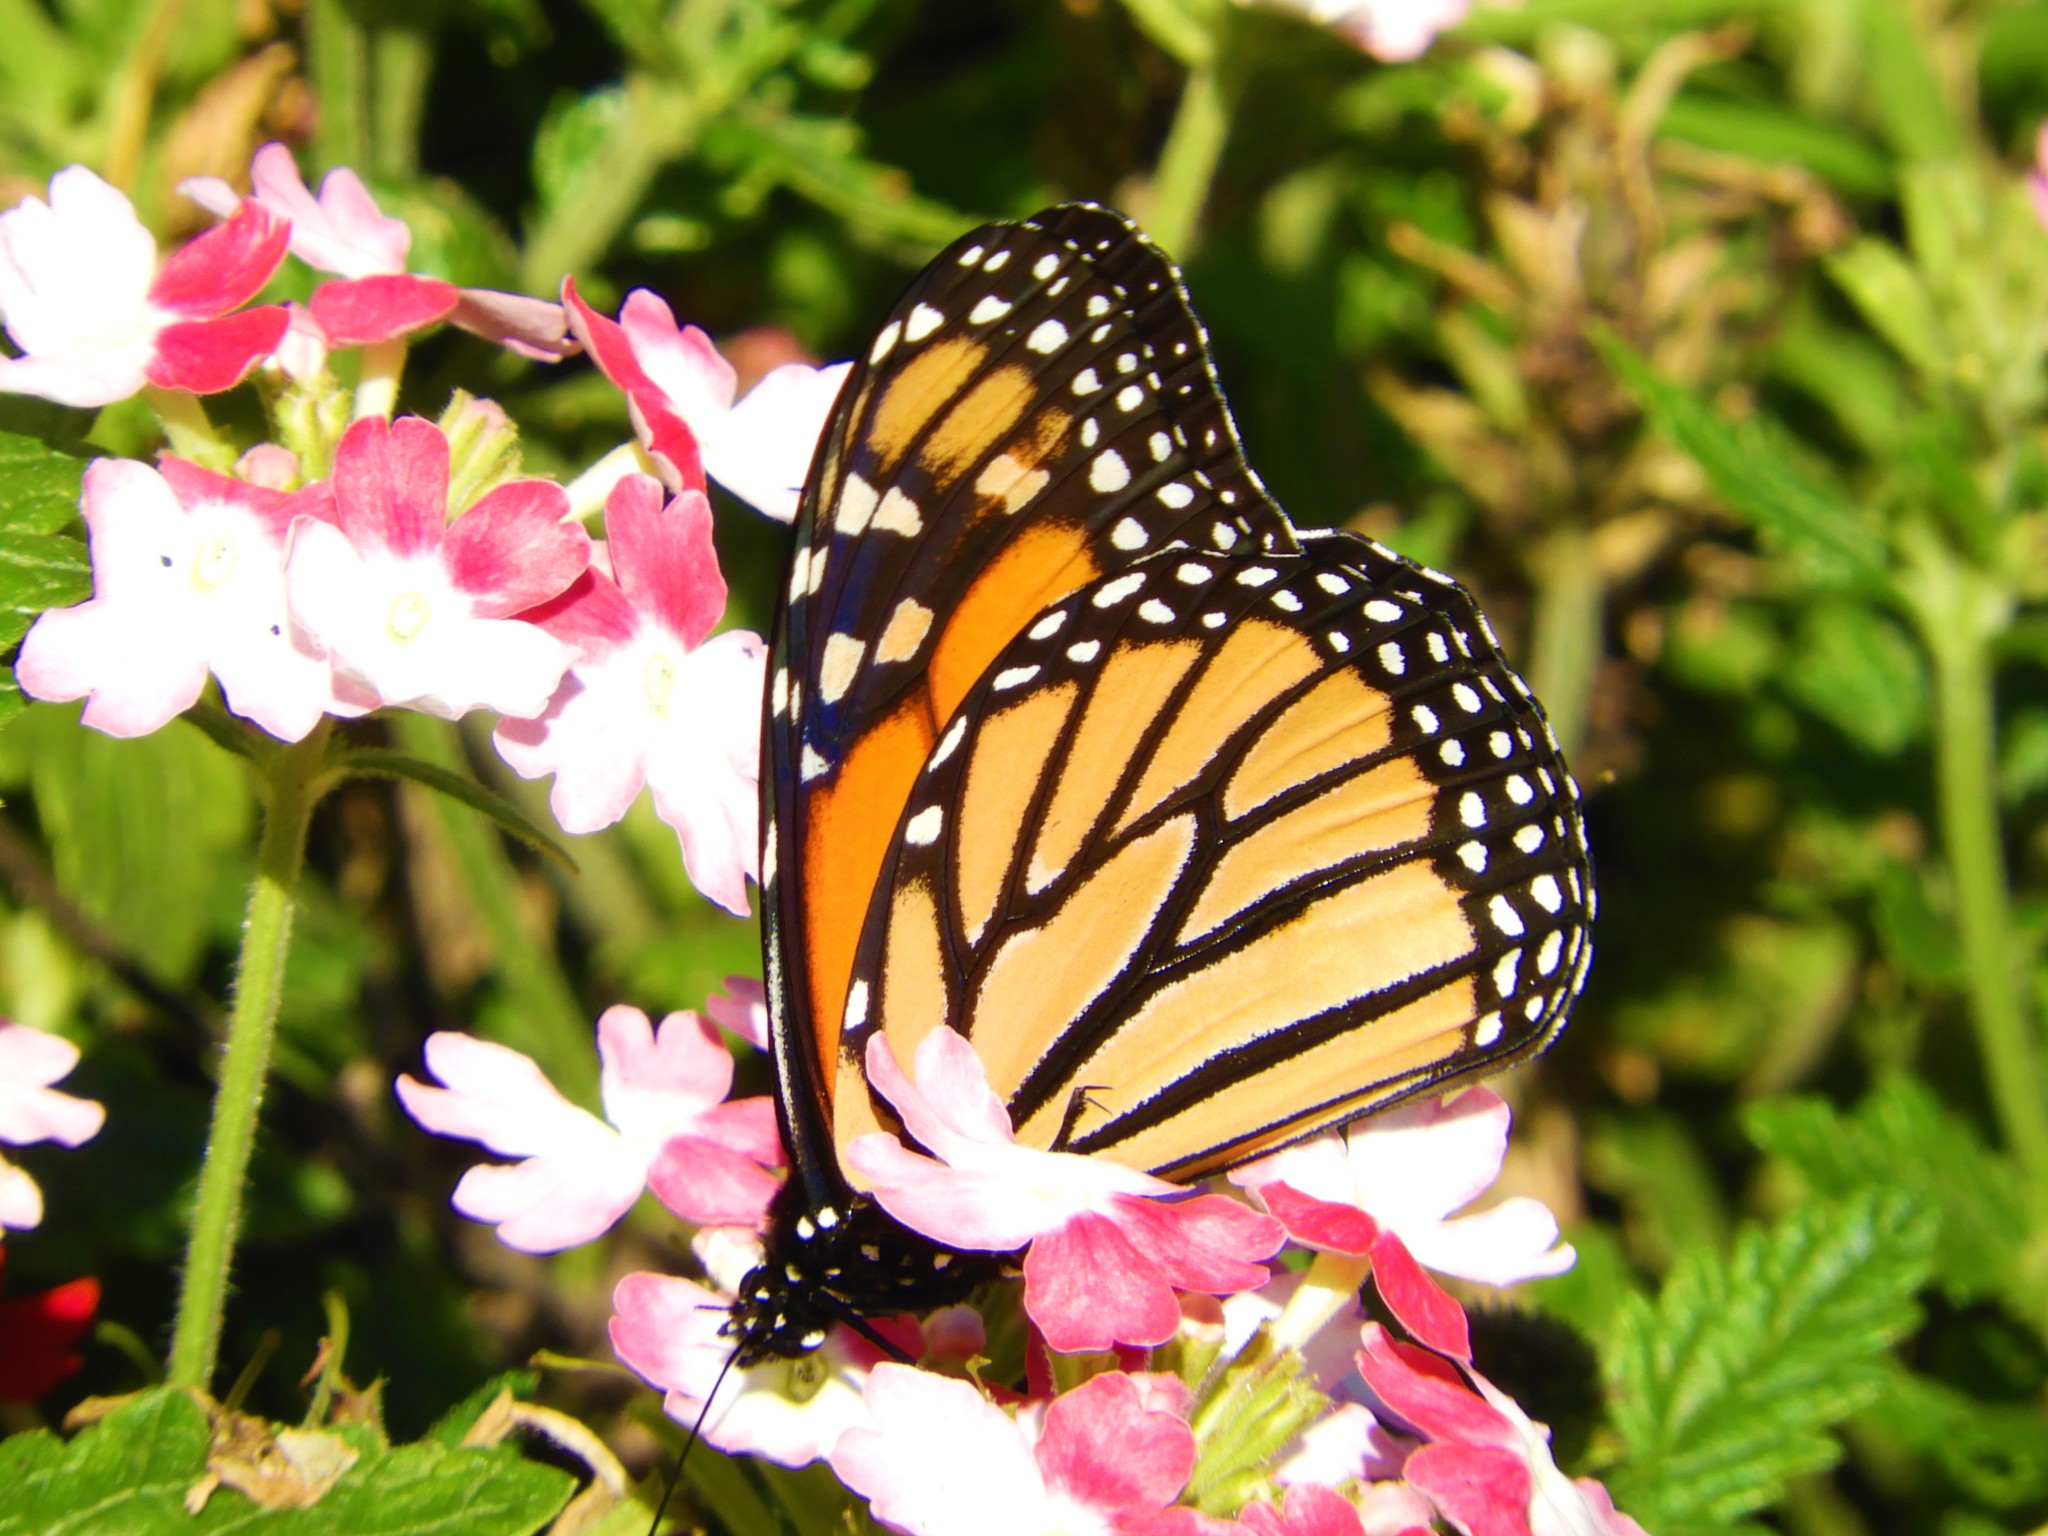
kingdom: Animalia
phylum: Arthropoda
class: Insecta
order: Lepidoptera
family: Nymphalidae
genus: Danaus
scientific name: Danaus plexippus
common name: Monarch
